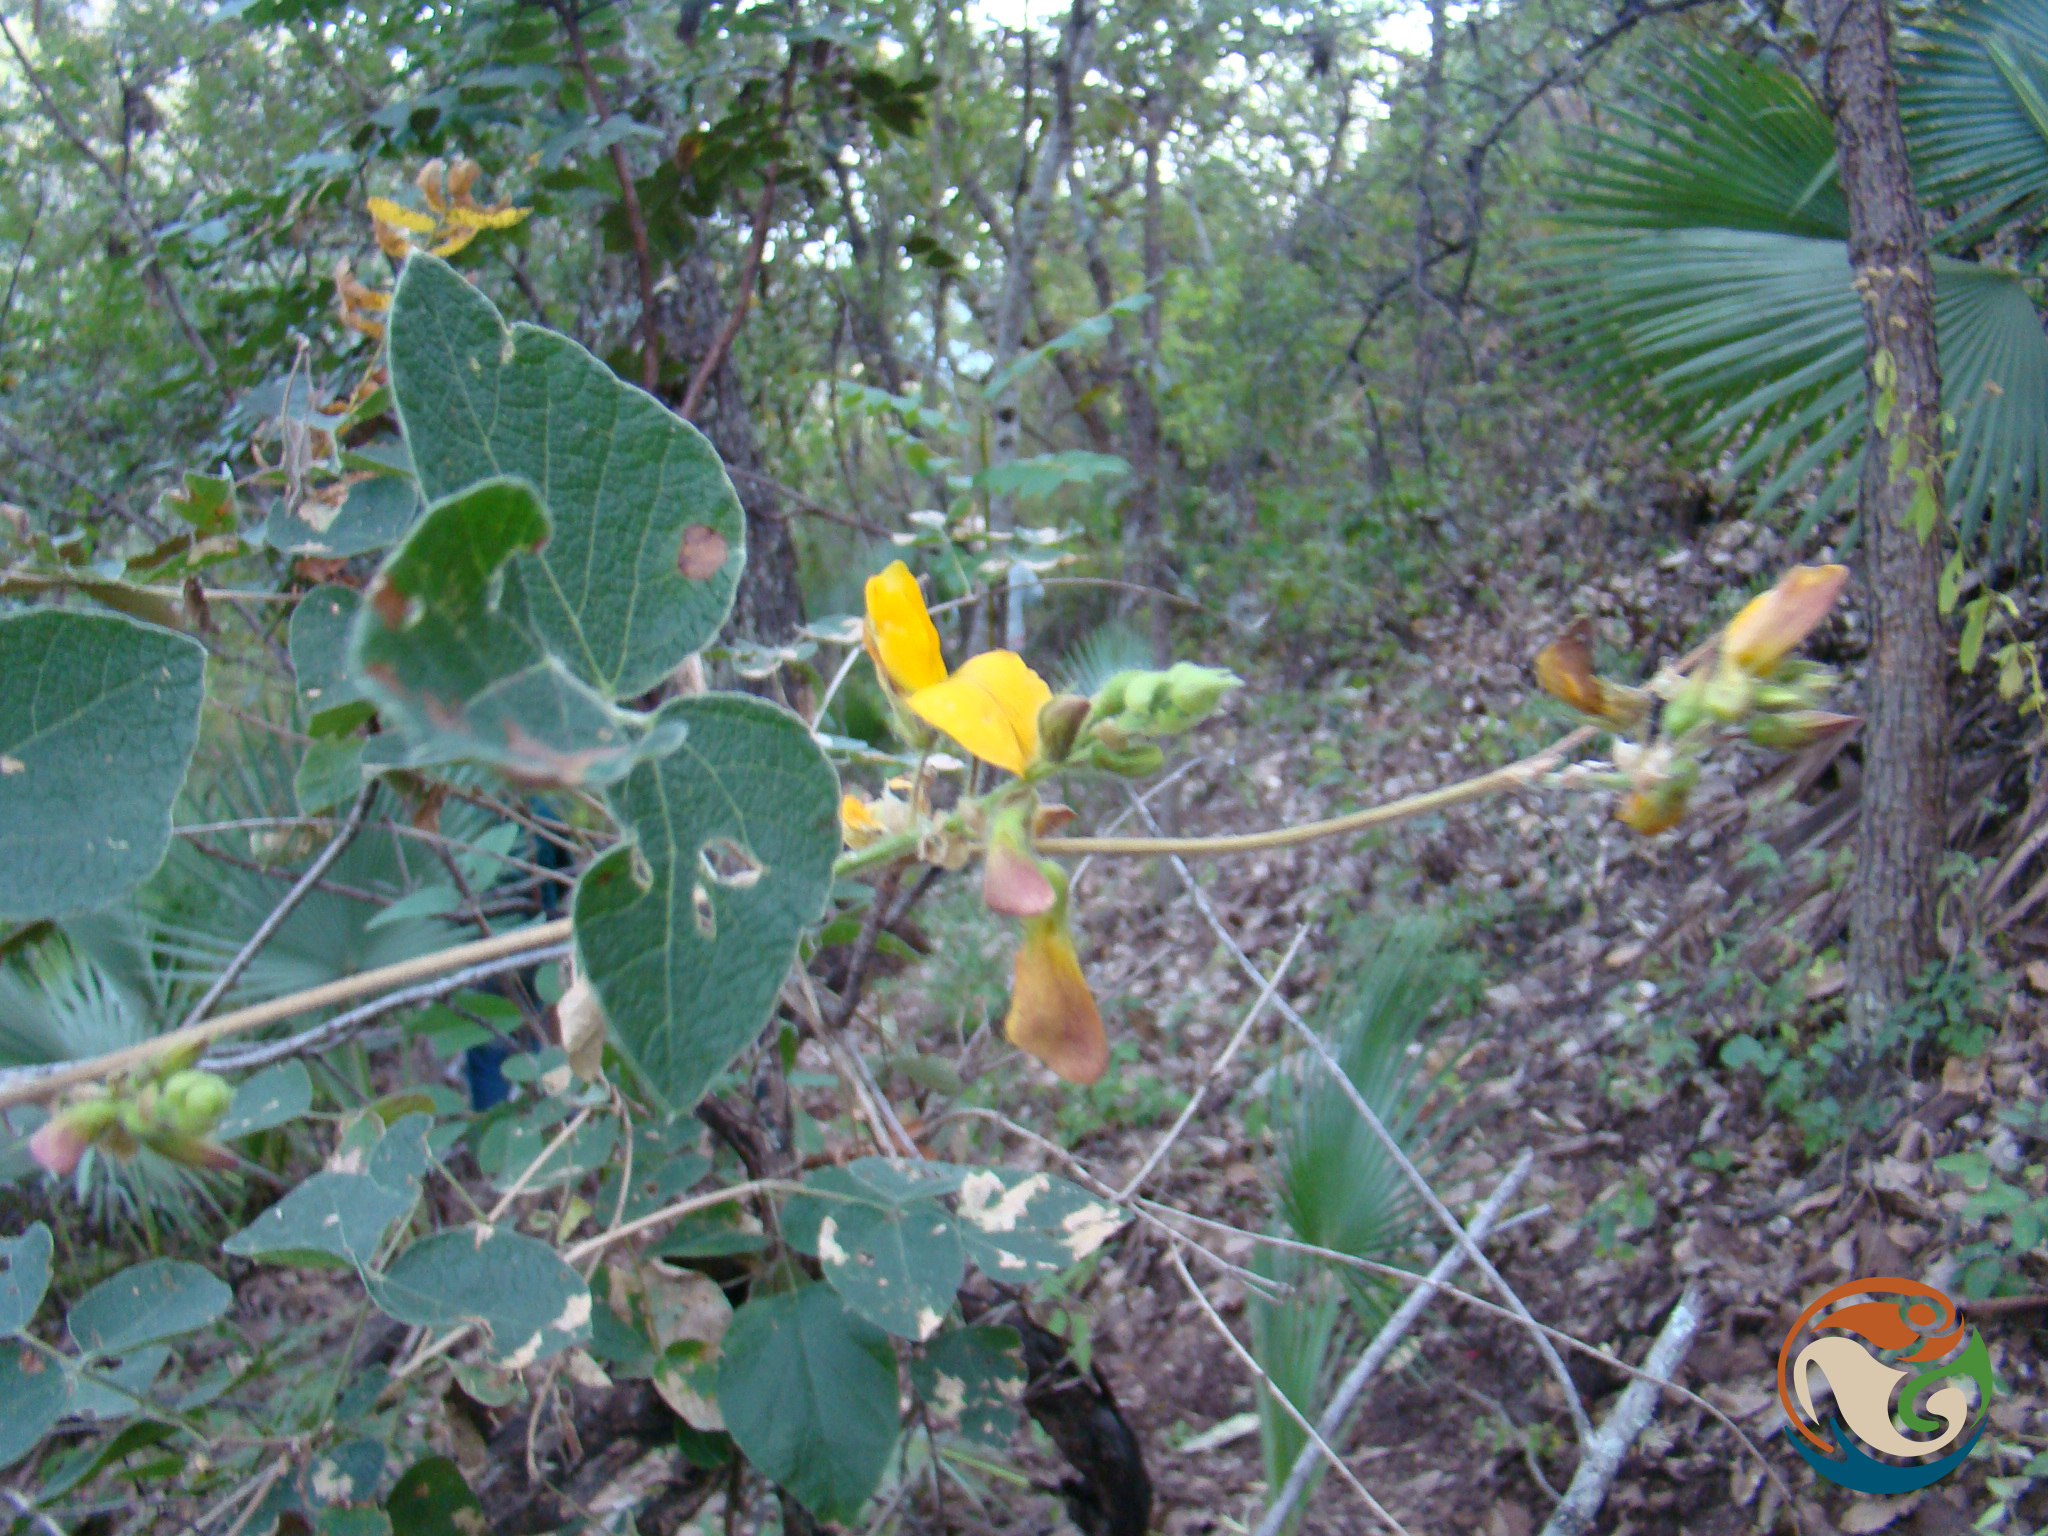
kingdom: Plantae
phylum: Tracheophyta
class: Magnoliopsida
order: Fabales
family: Fabaceae
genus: Rhynchosia
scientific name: Rhynchosia edulis
